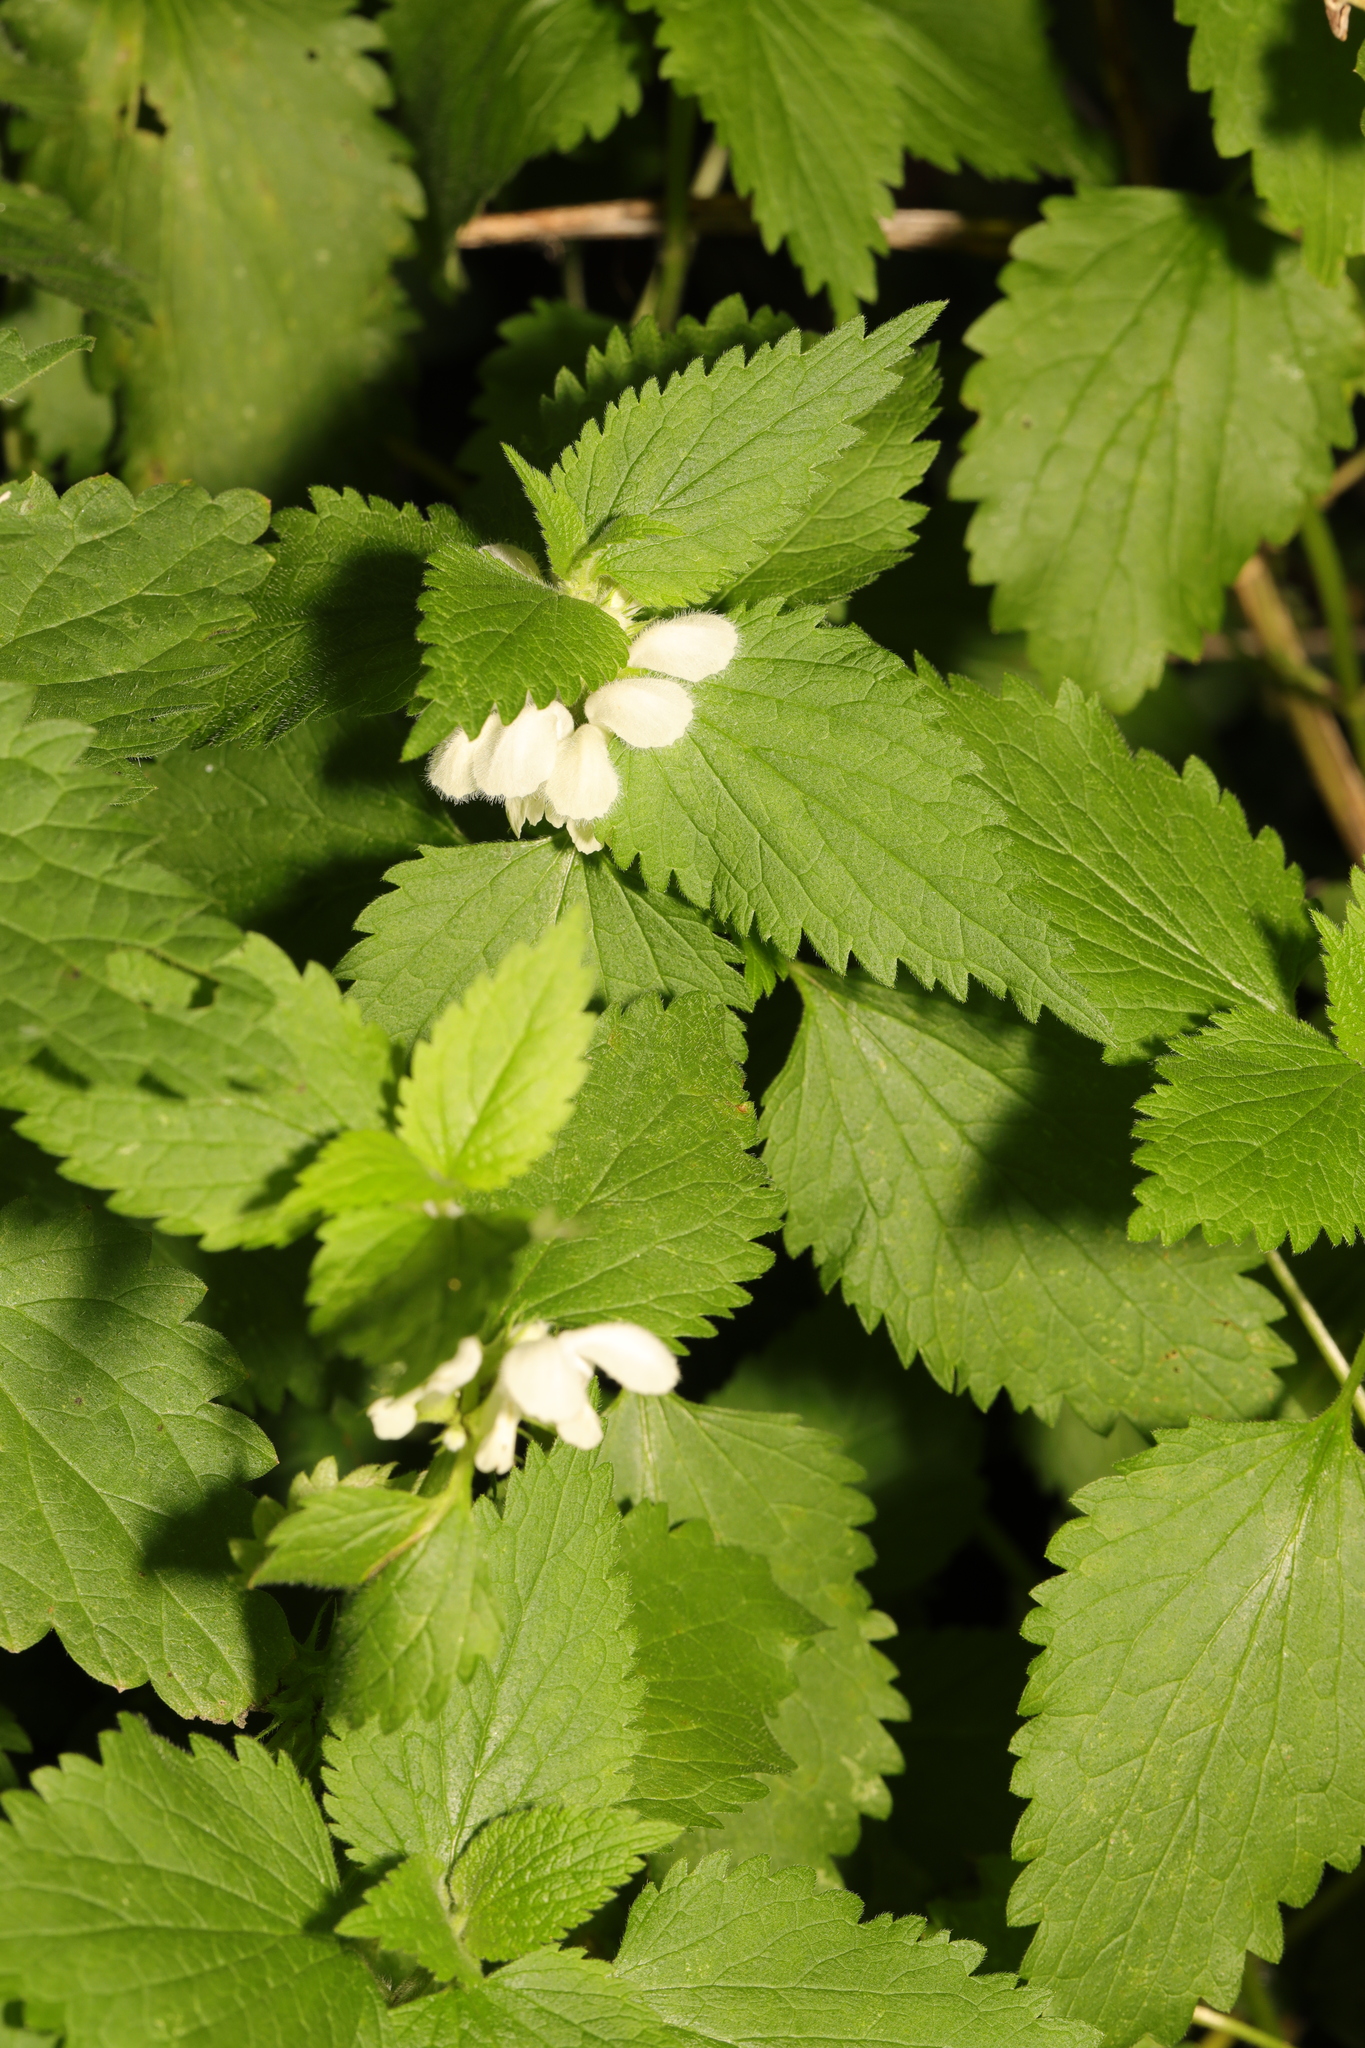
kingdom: Plantae
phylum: Tracheophyta
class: Magnoliopsida
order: Lamiales
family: Lamiaceae
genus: Lamium
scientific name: Lamium album
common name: White dead-nettle
